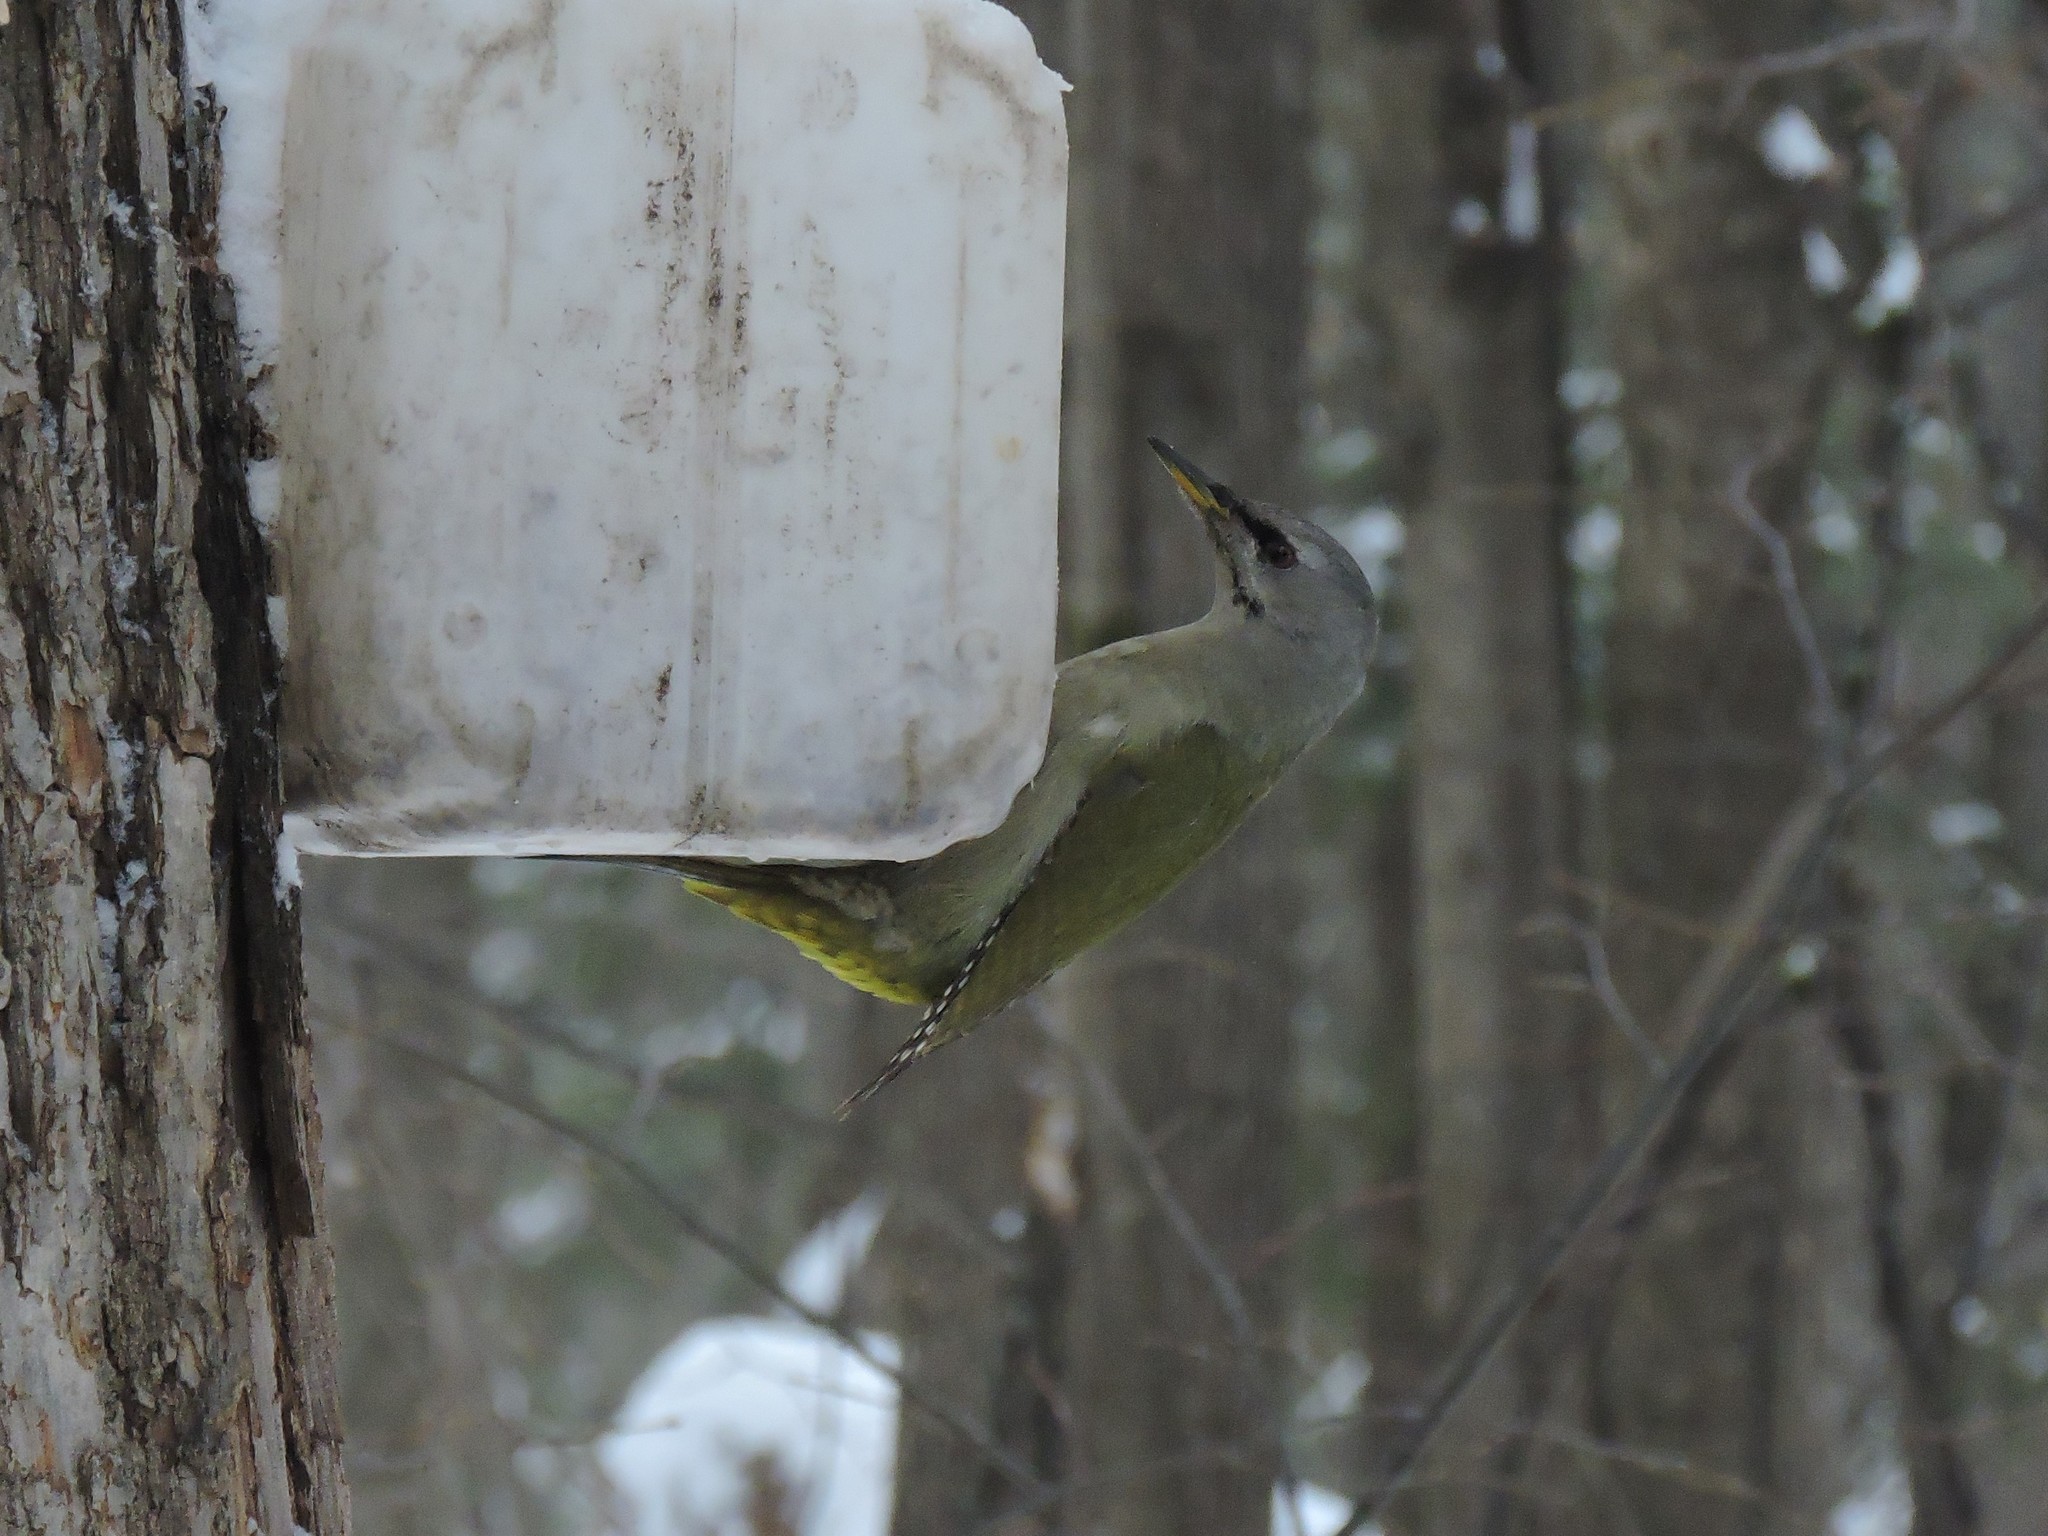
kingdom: Animalia
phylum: Chordata
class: Aves
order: Piciformes
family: Picidae
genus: Picus
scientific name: Picus canus
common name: Grey-headed woodpecker
